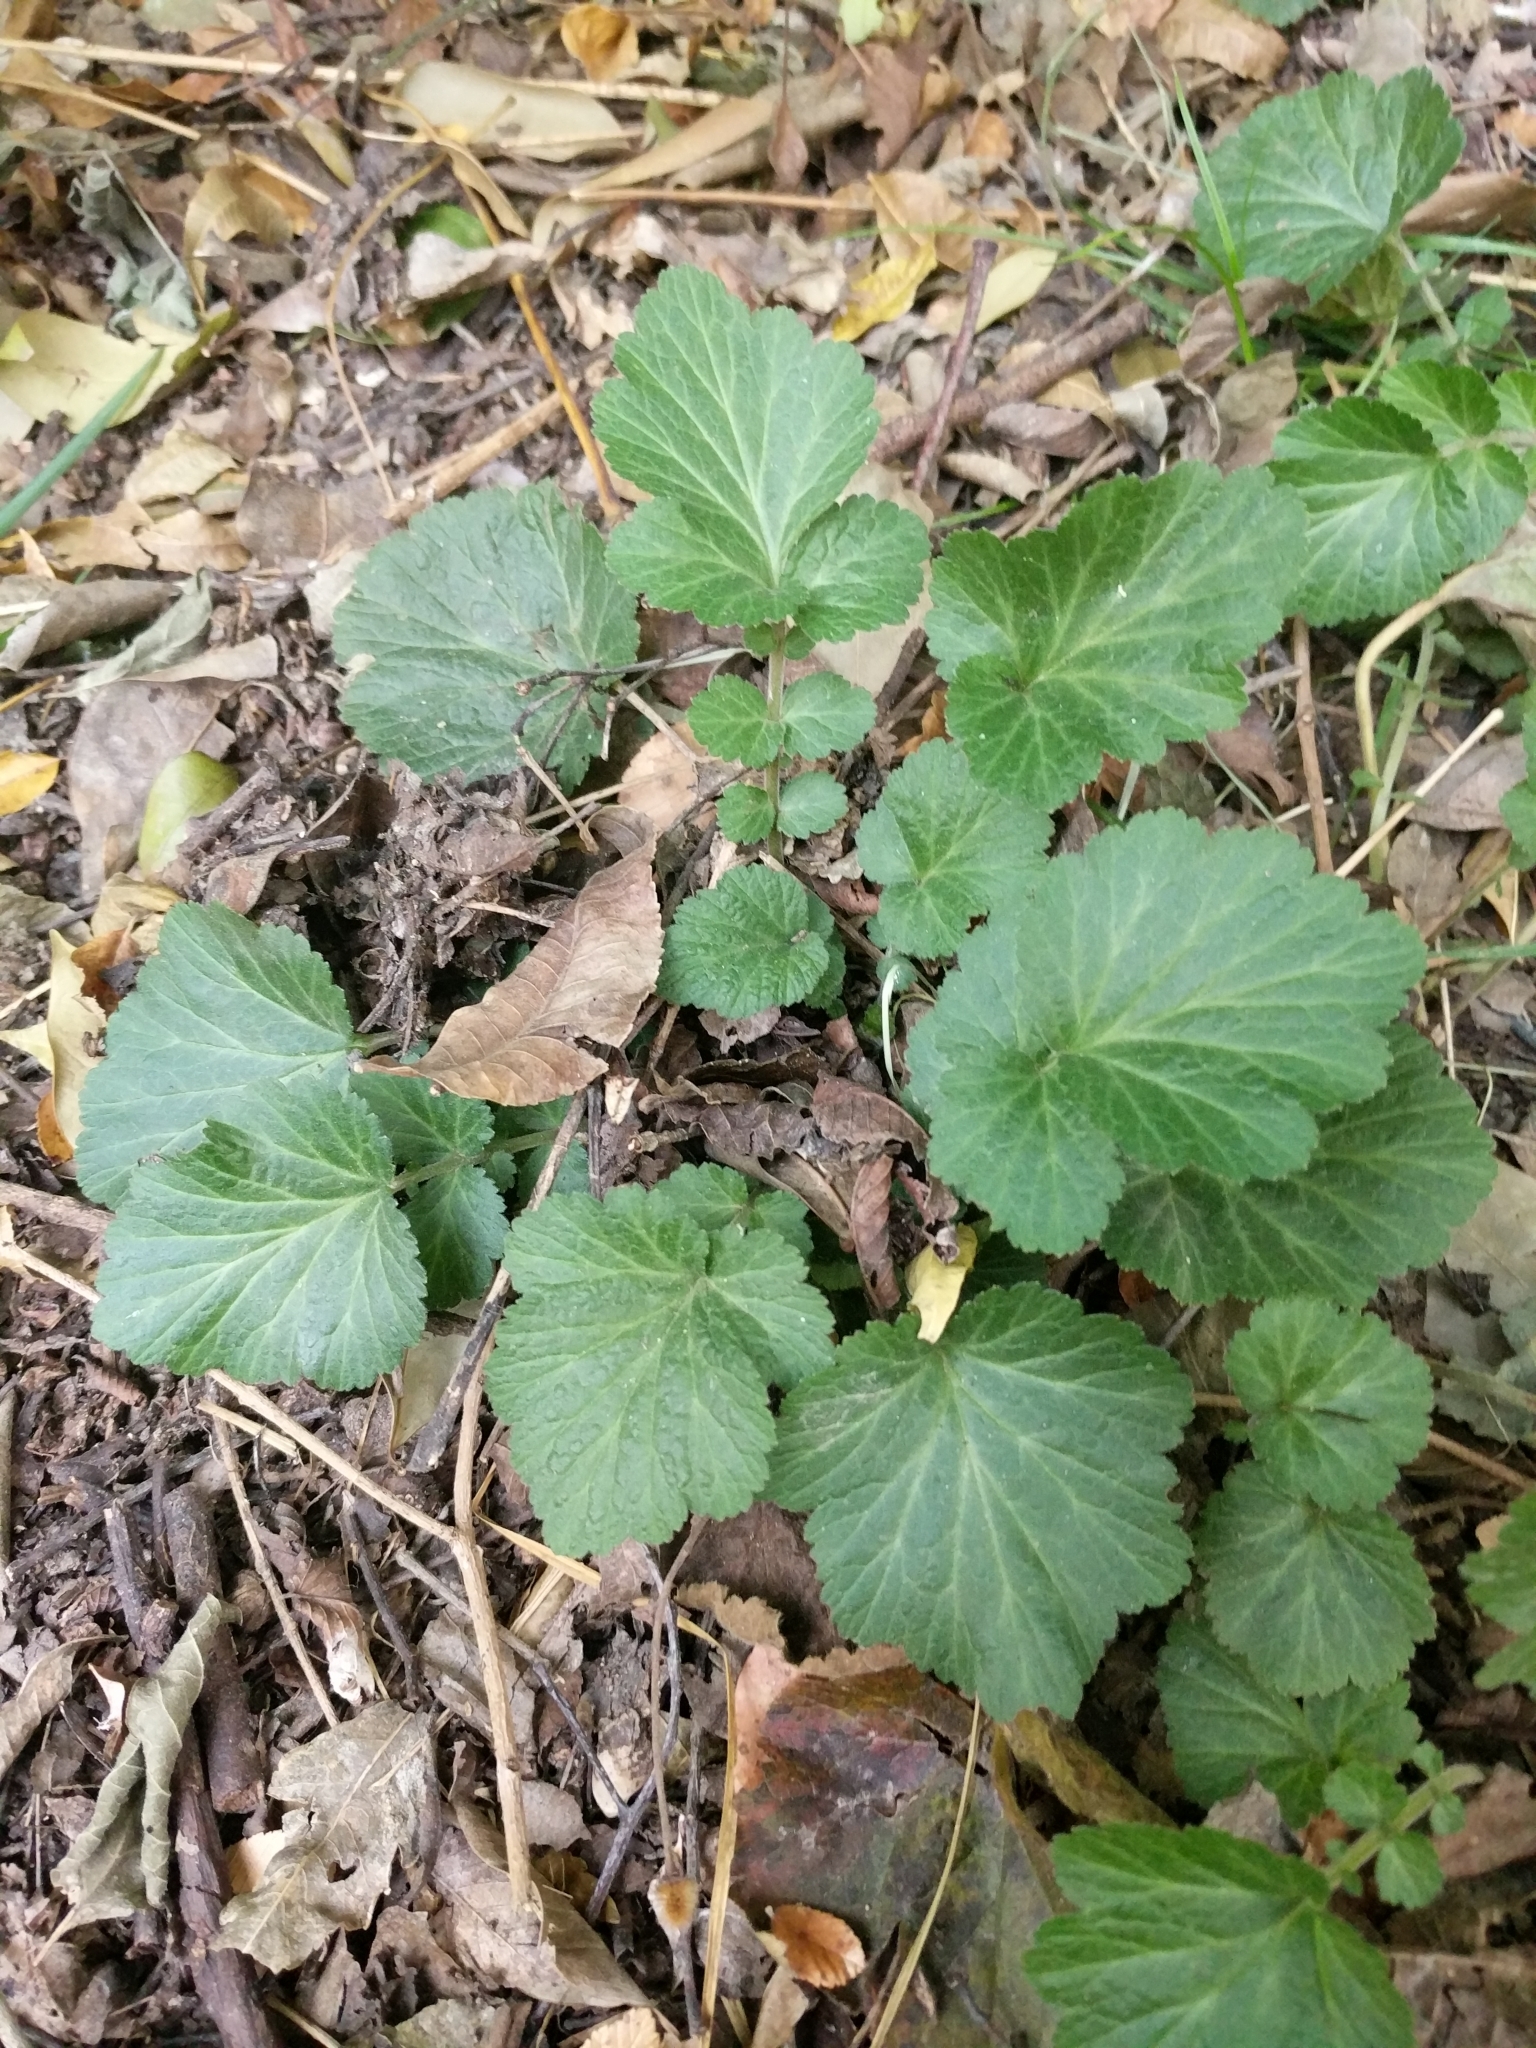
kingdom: Plantae
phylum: Tracheophyta
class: Magnoliopsida
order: Rosales
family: Rosaceae
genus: Geum
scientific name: Geum canadense
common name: White avens
